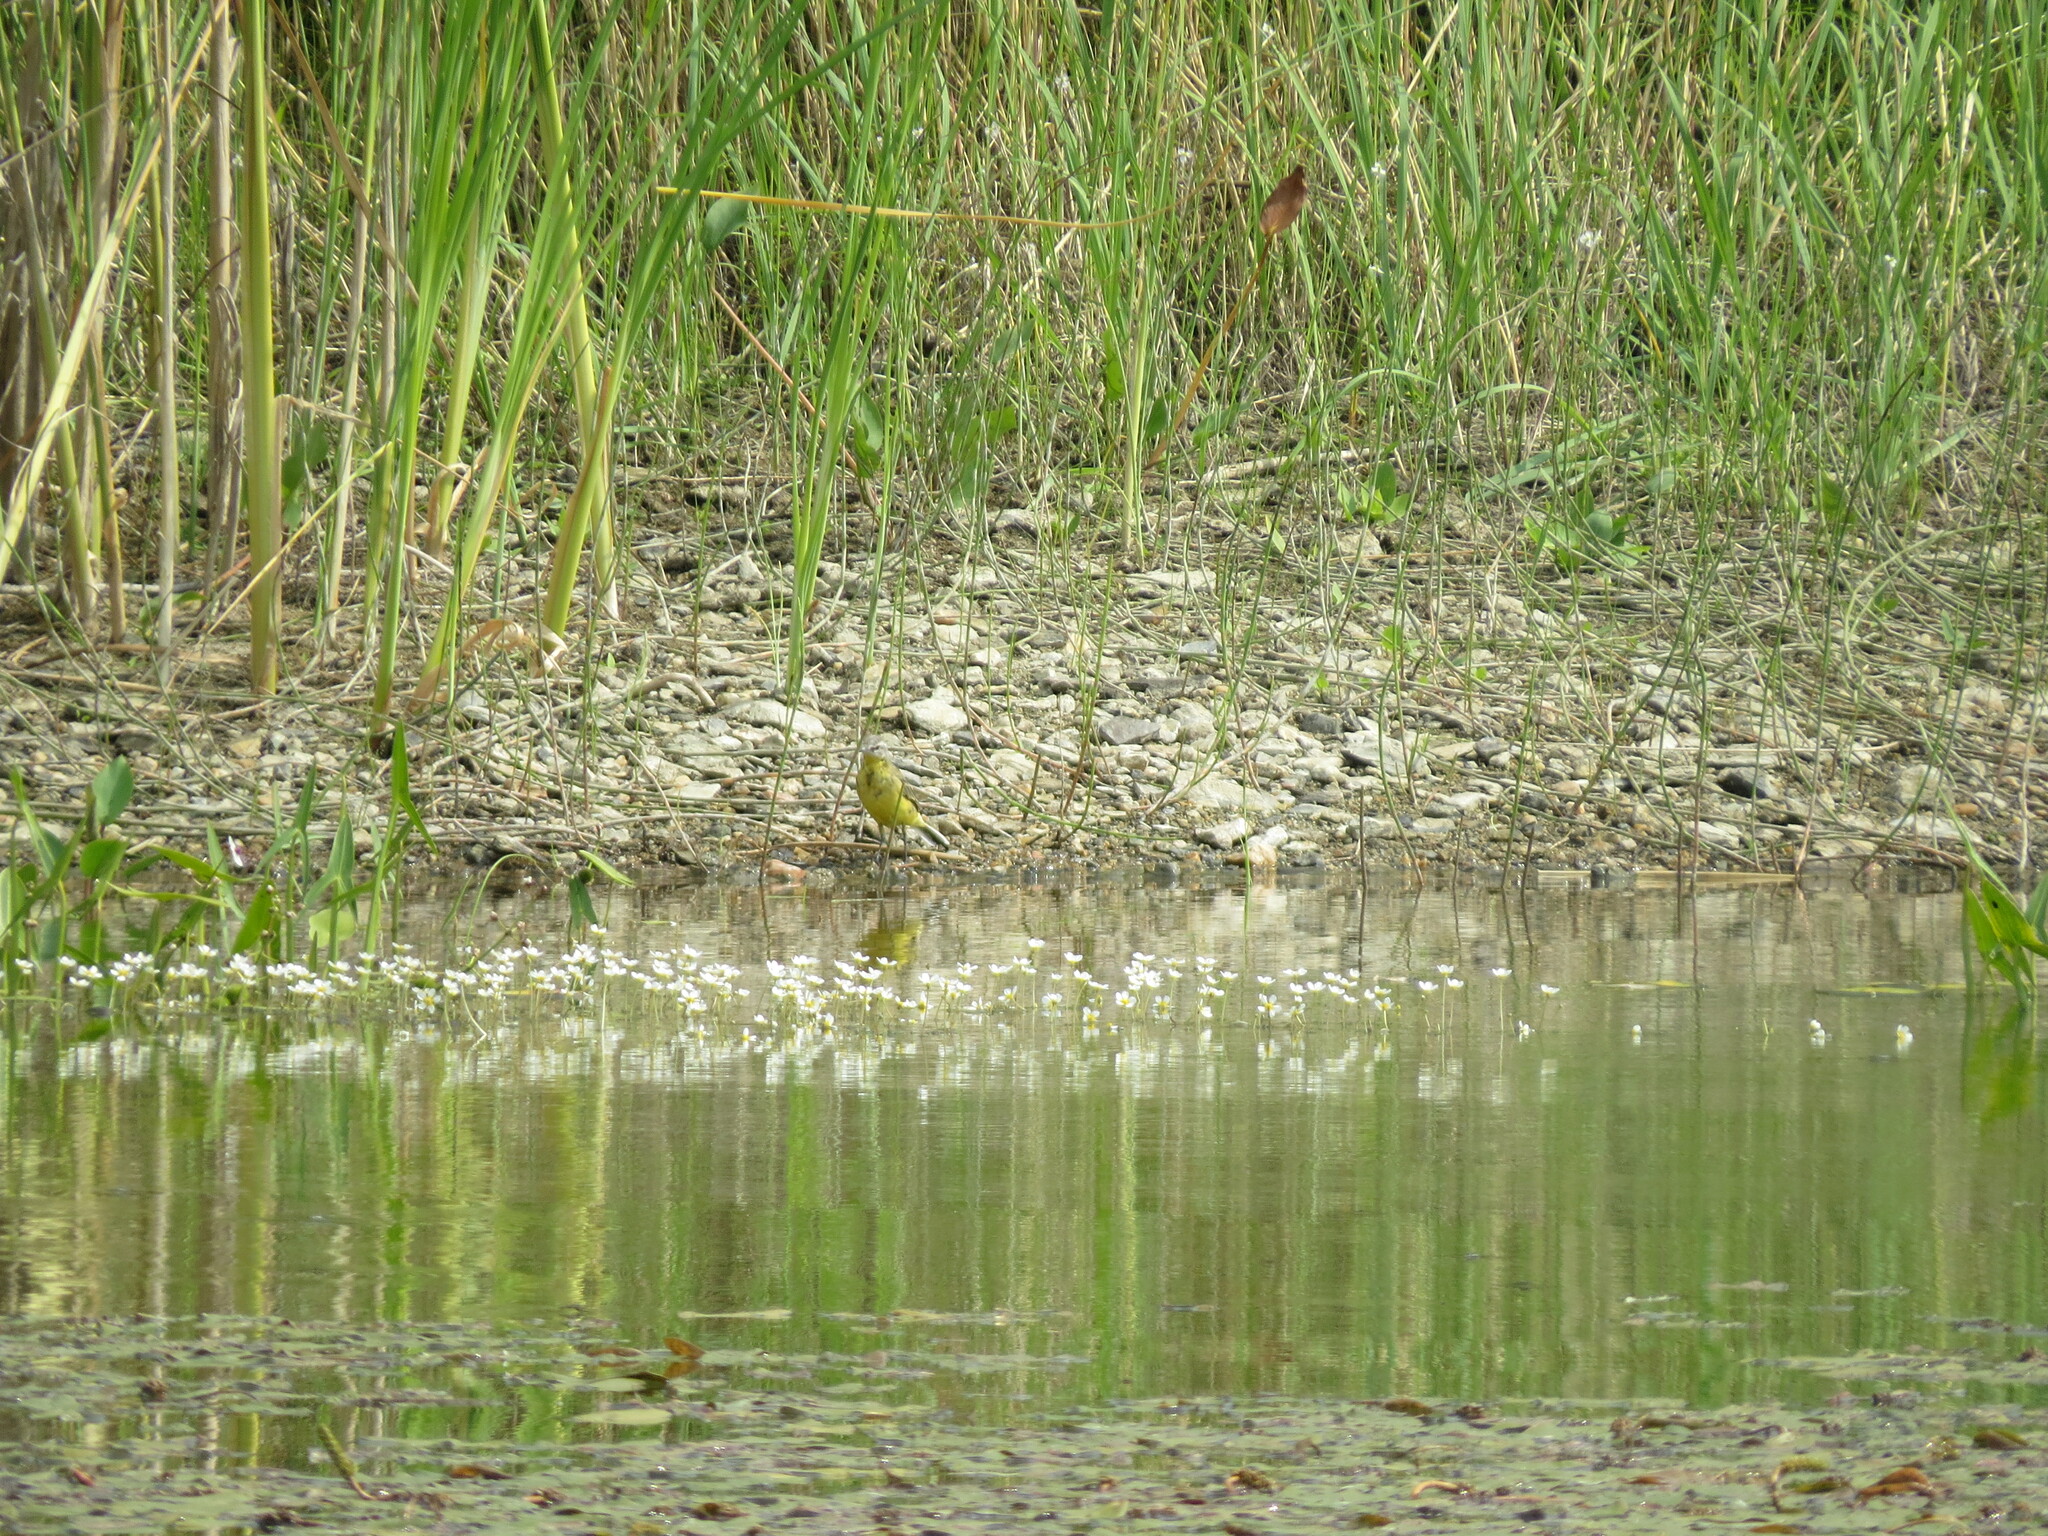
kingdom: Animalia
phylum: Chordata
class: Aves
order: Passeriformes
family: Motacillidae
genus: Motacilla
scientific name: Motacilla flava
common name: Western yellow wagtail
